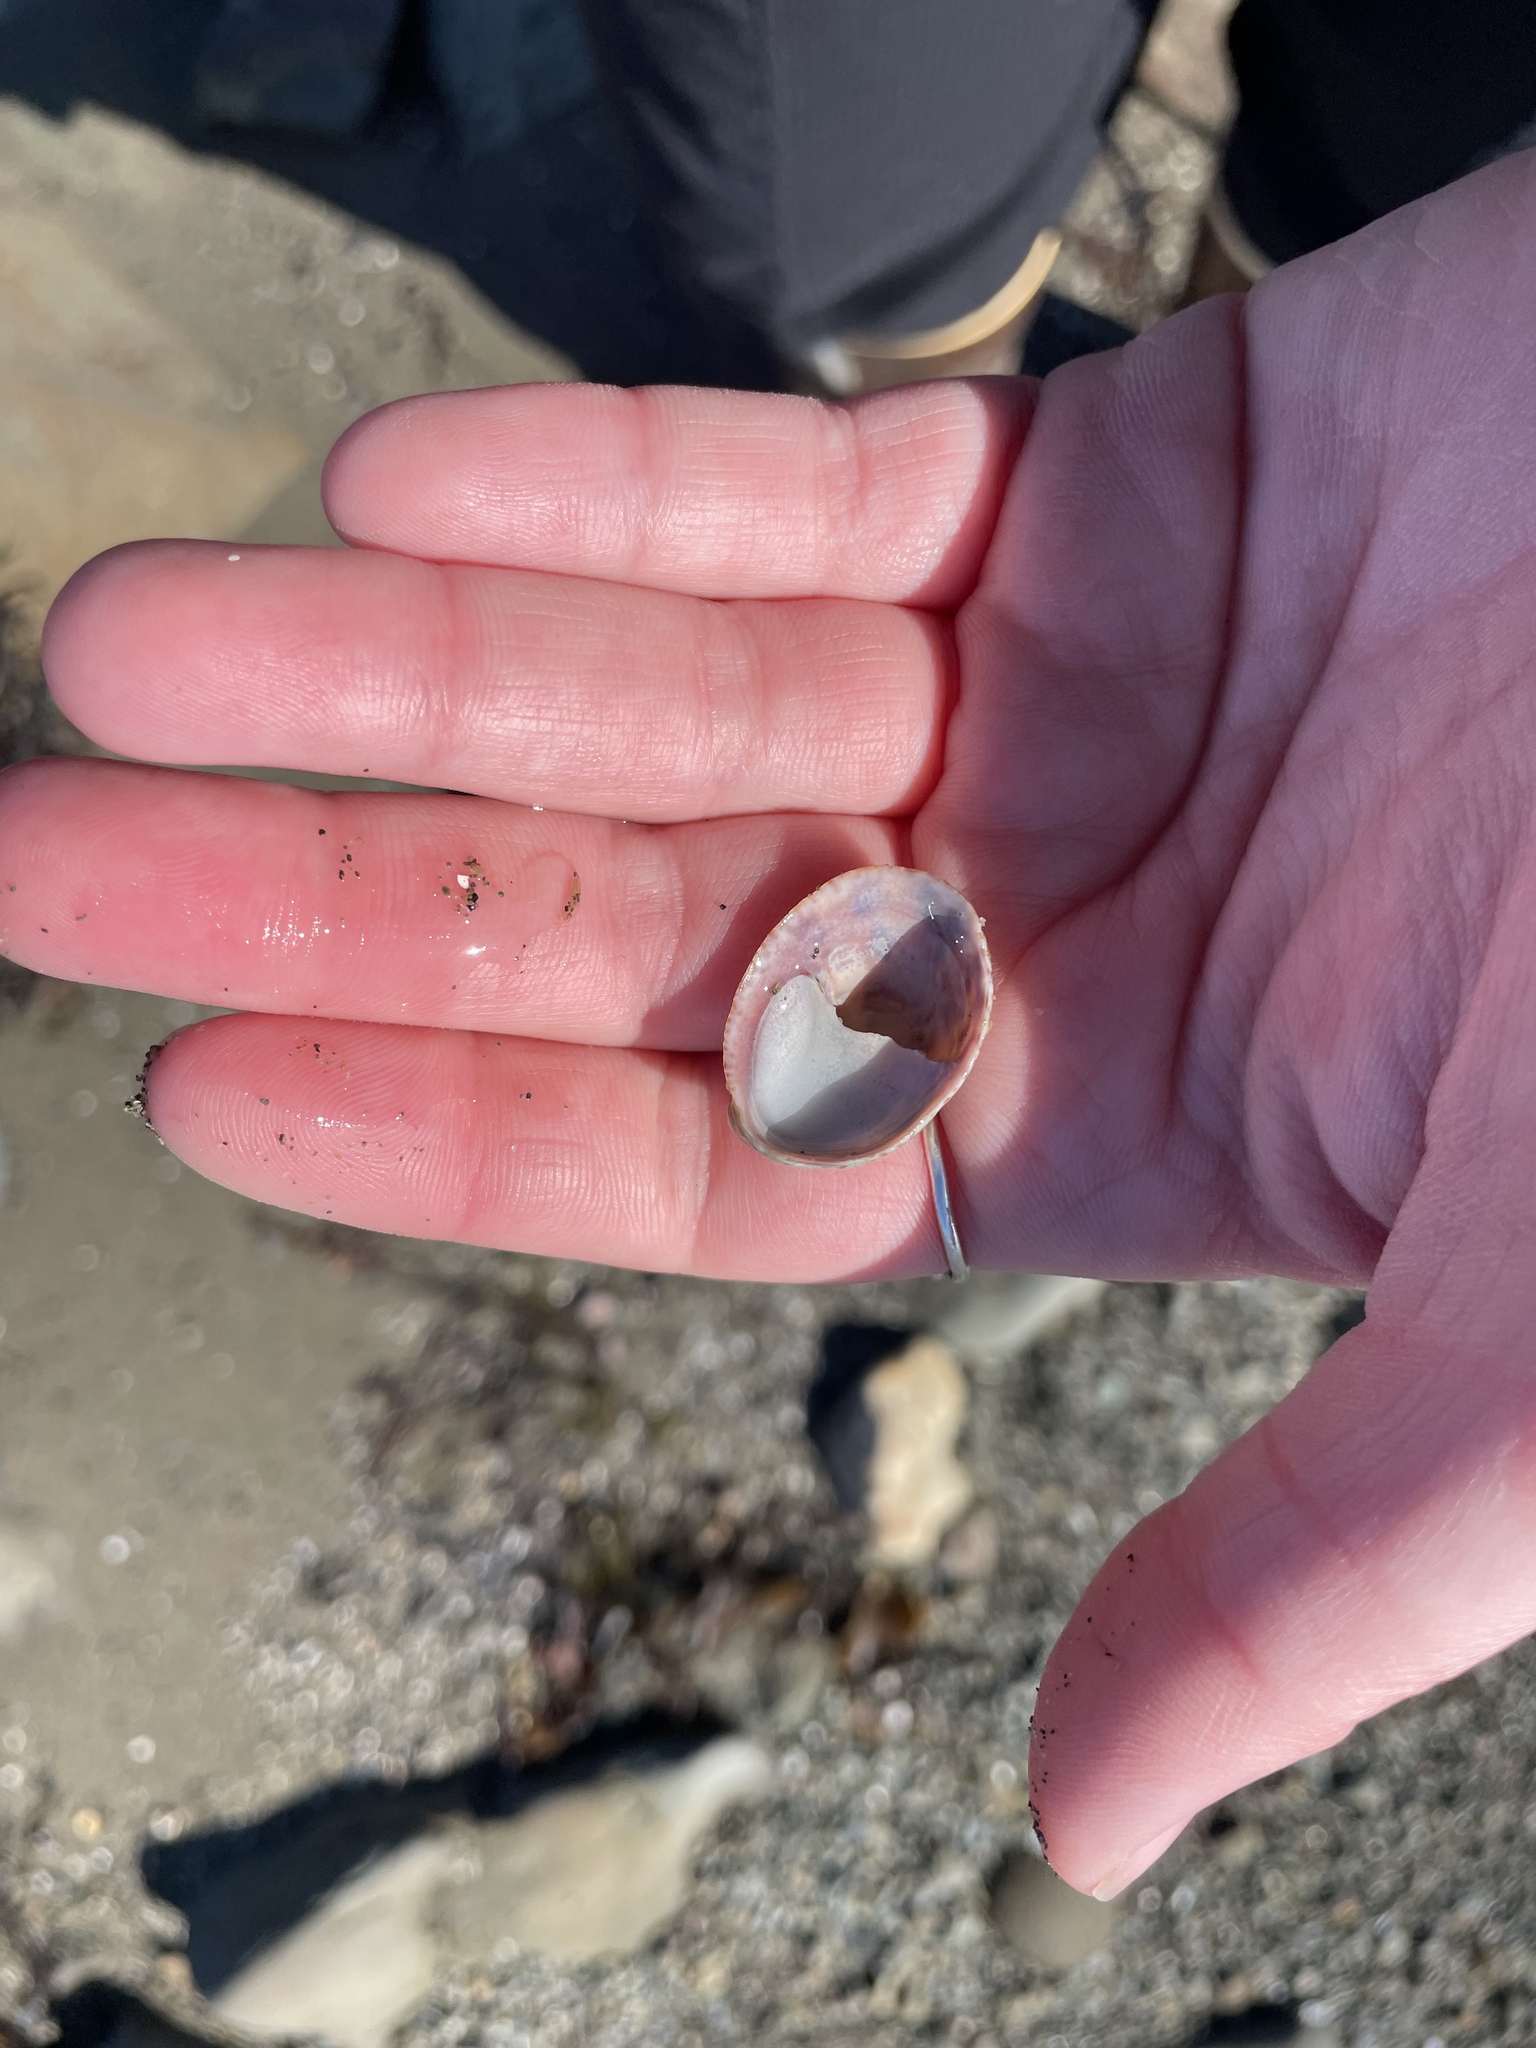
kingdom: Animalia
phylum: Mollusca
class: Gastropoda
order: Littorinimorpha
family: Calyptraeidae
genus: Crepidula
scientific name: Crepidula fornicata
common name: Slipper limpet
